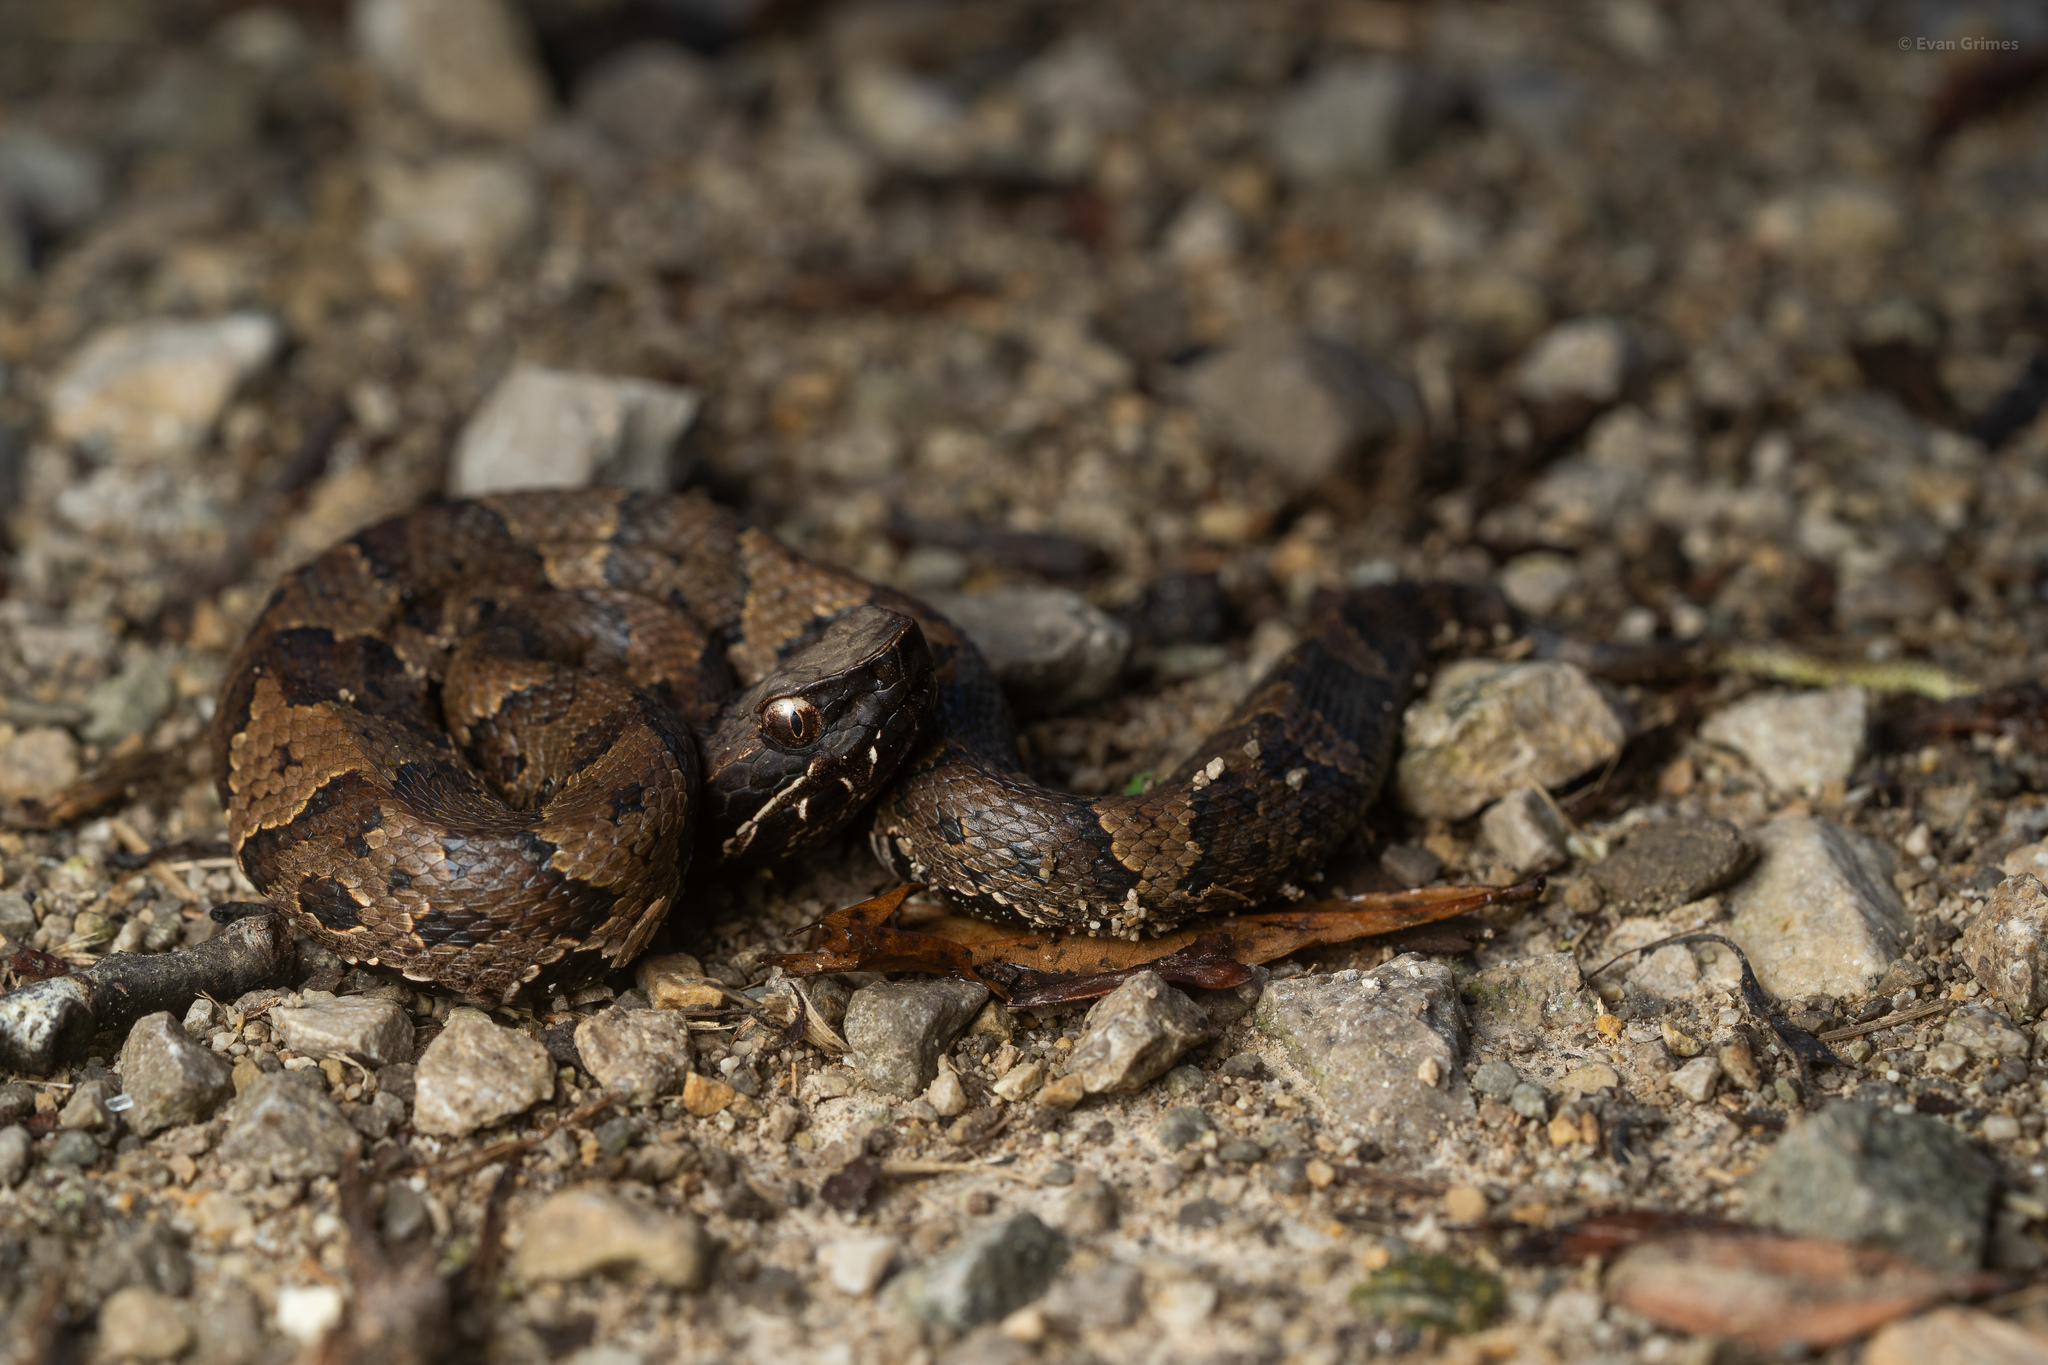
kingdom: Animalia
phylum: Chordata
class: Squamata
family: Viperidae
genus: Agkistrodon
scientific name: Agkistrodon piscivorus
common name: Cottonmouth
